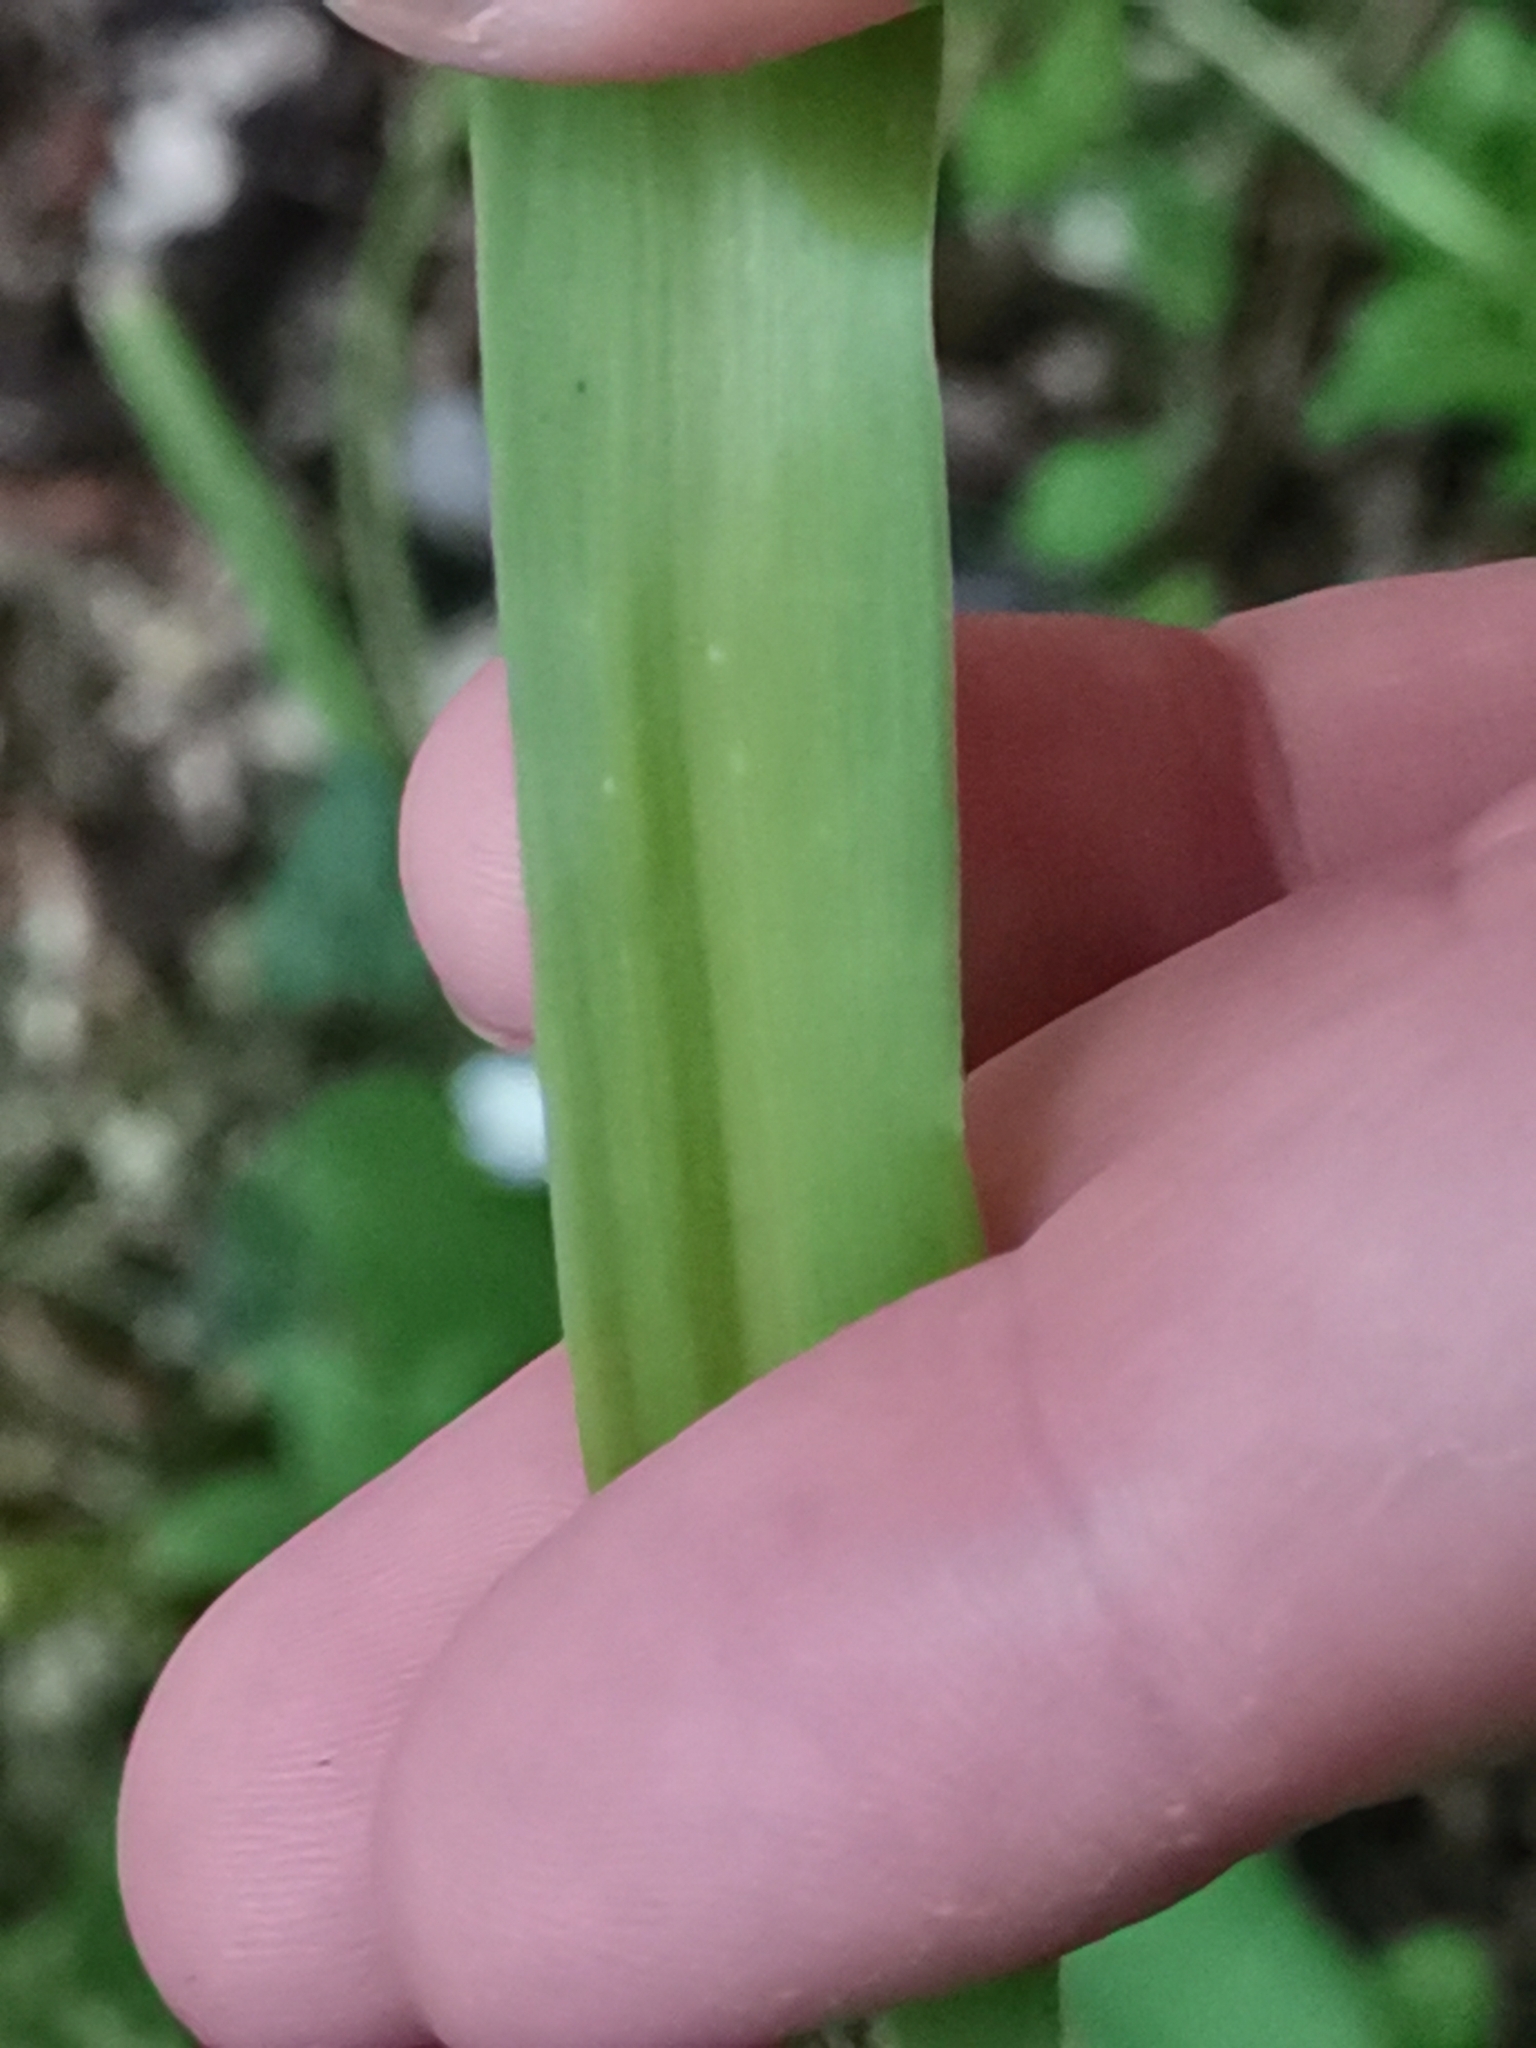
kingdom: Plantae
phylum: Tracheophyta
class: Liliopsida
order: Asparagales
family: Amaryllidaceae
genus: Allium
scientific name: Allium neapolitanum
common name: Neapolitan garlic
